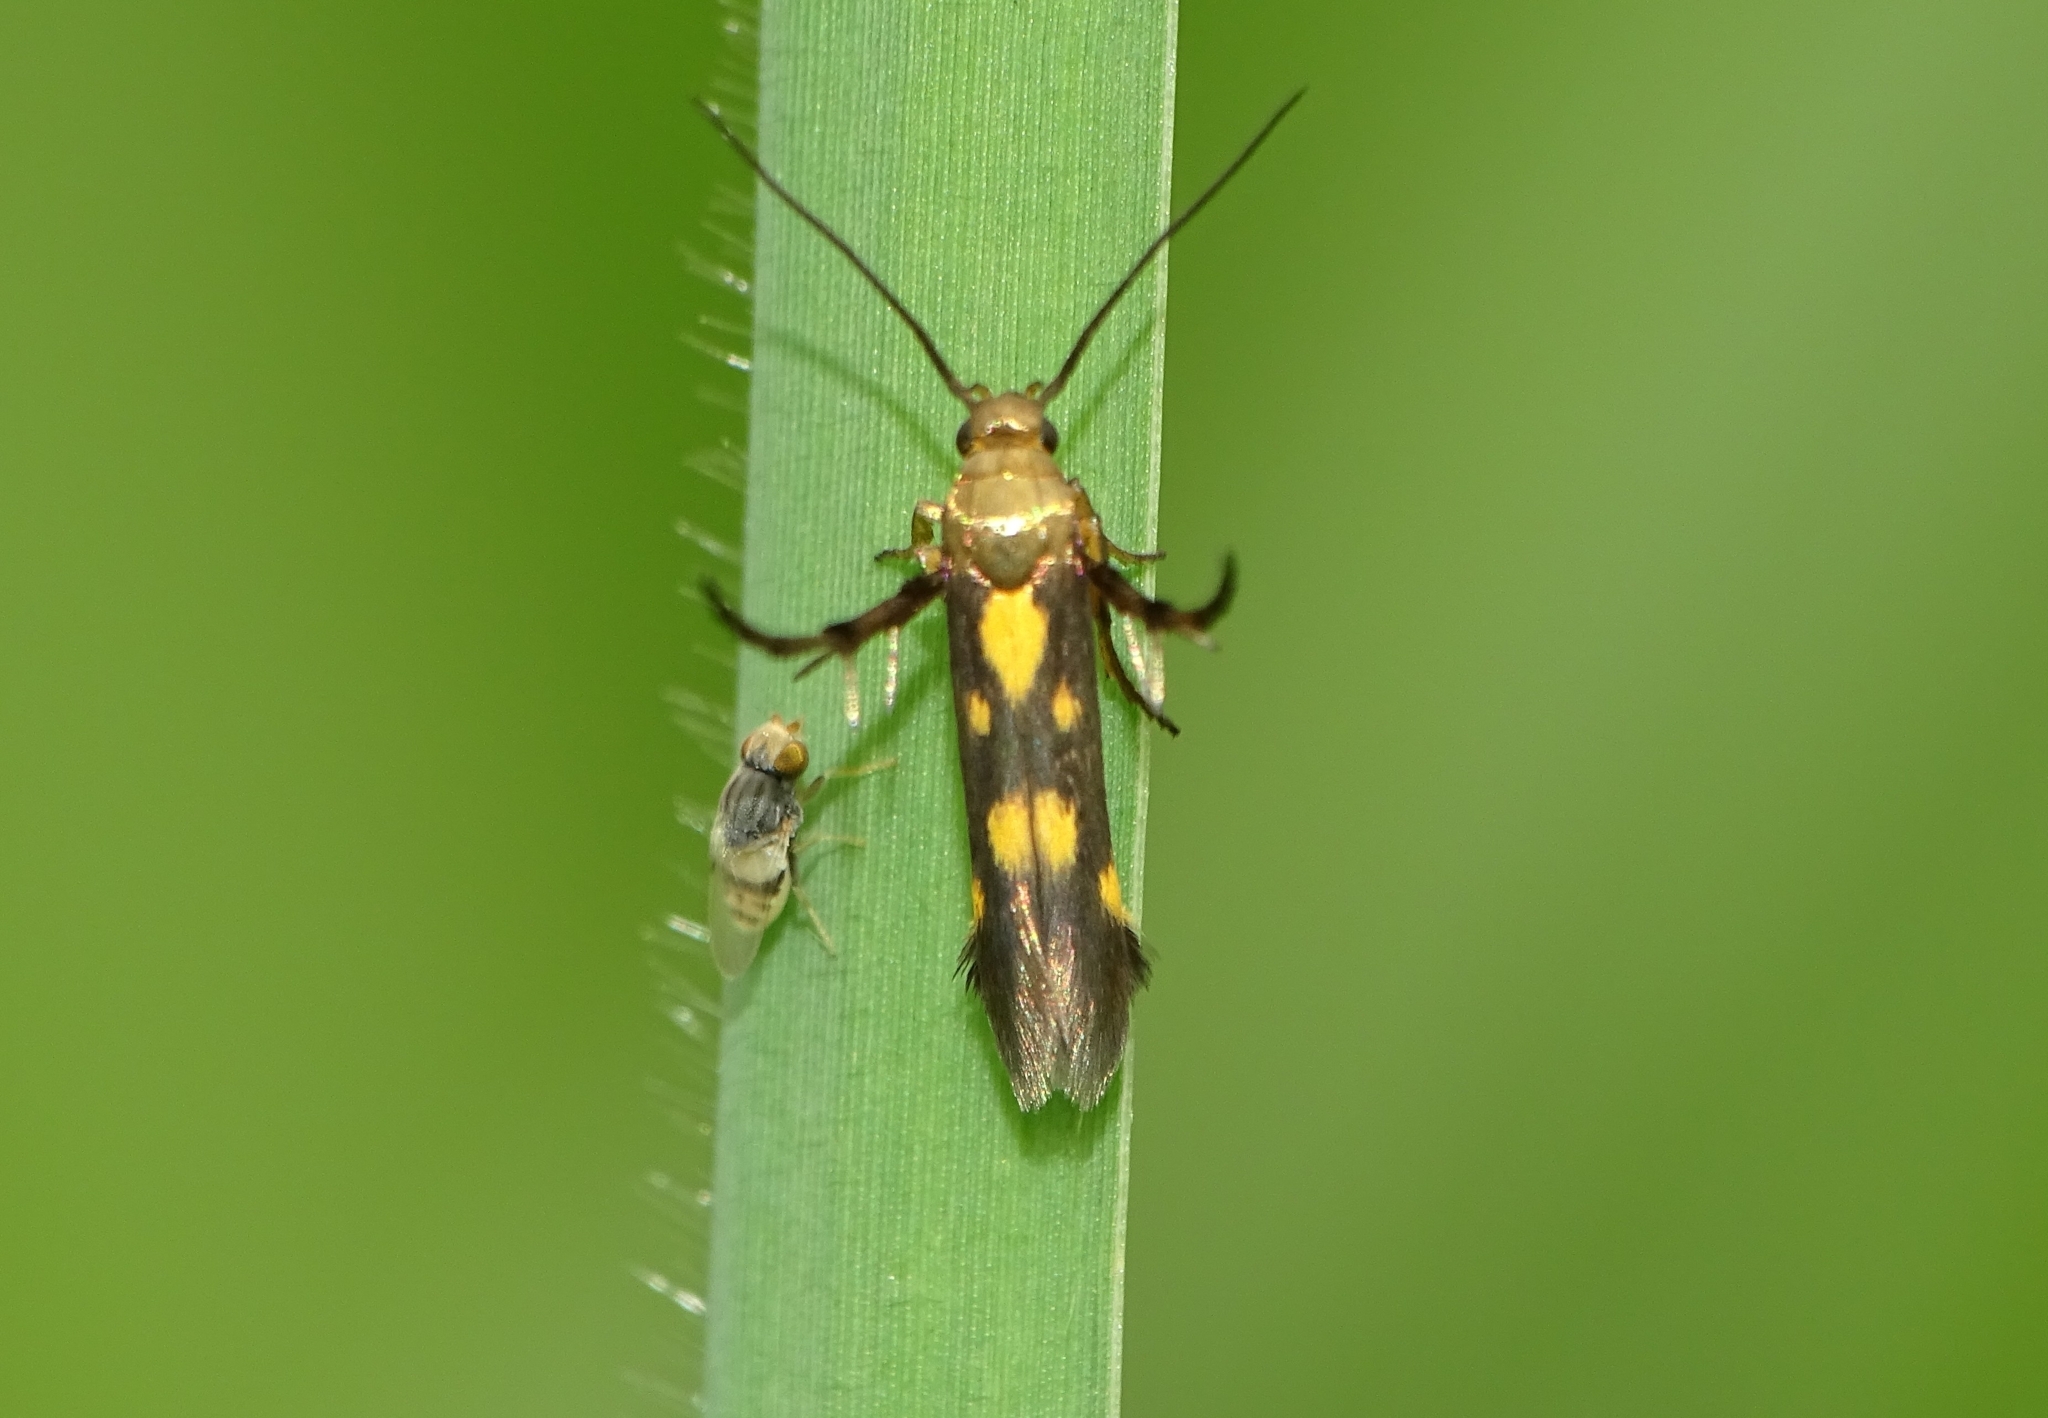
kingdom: Animalia
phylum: Arthropoda
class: Insecta
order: Lepidoptera
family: Scythrididae
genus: Eretmocera
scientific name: Eretmocera impactella
